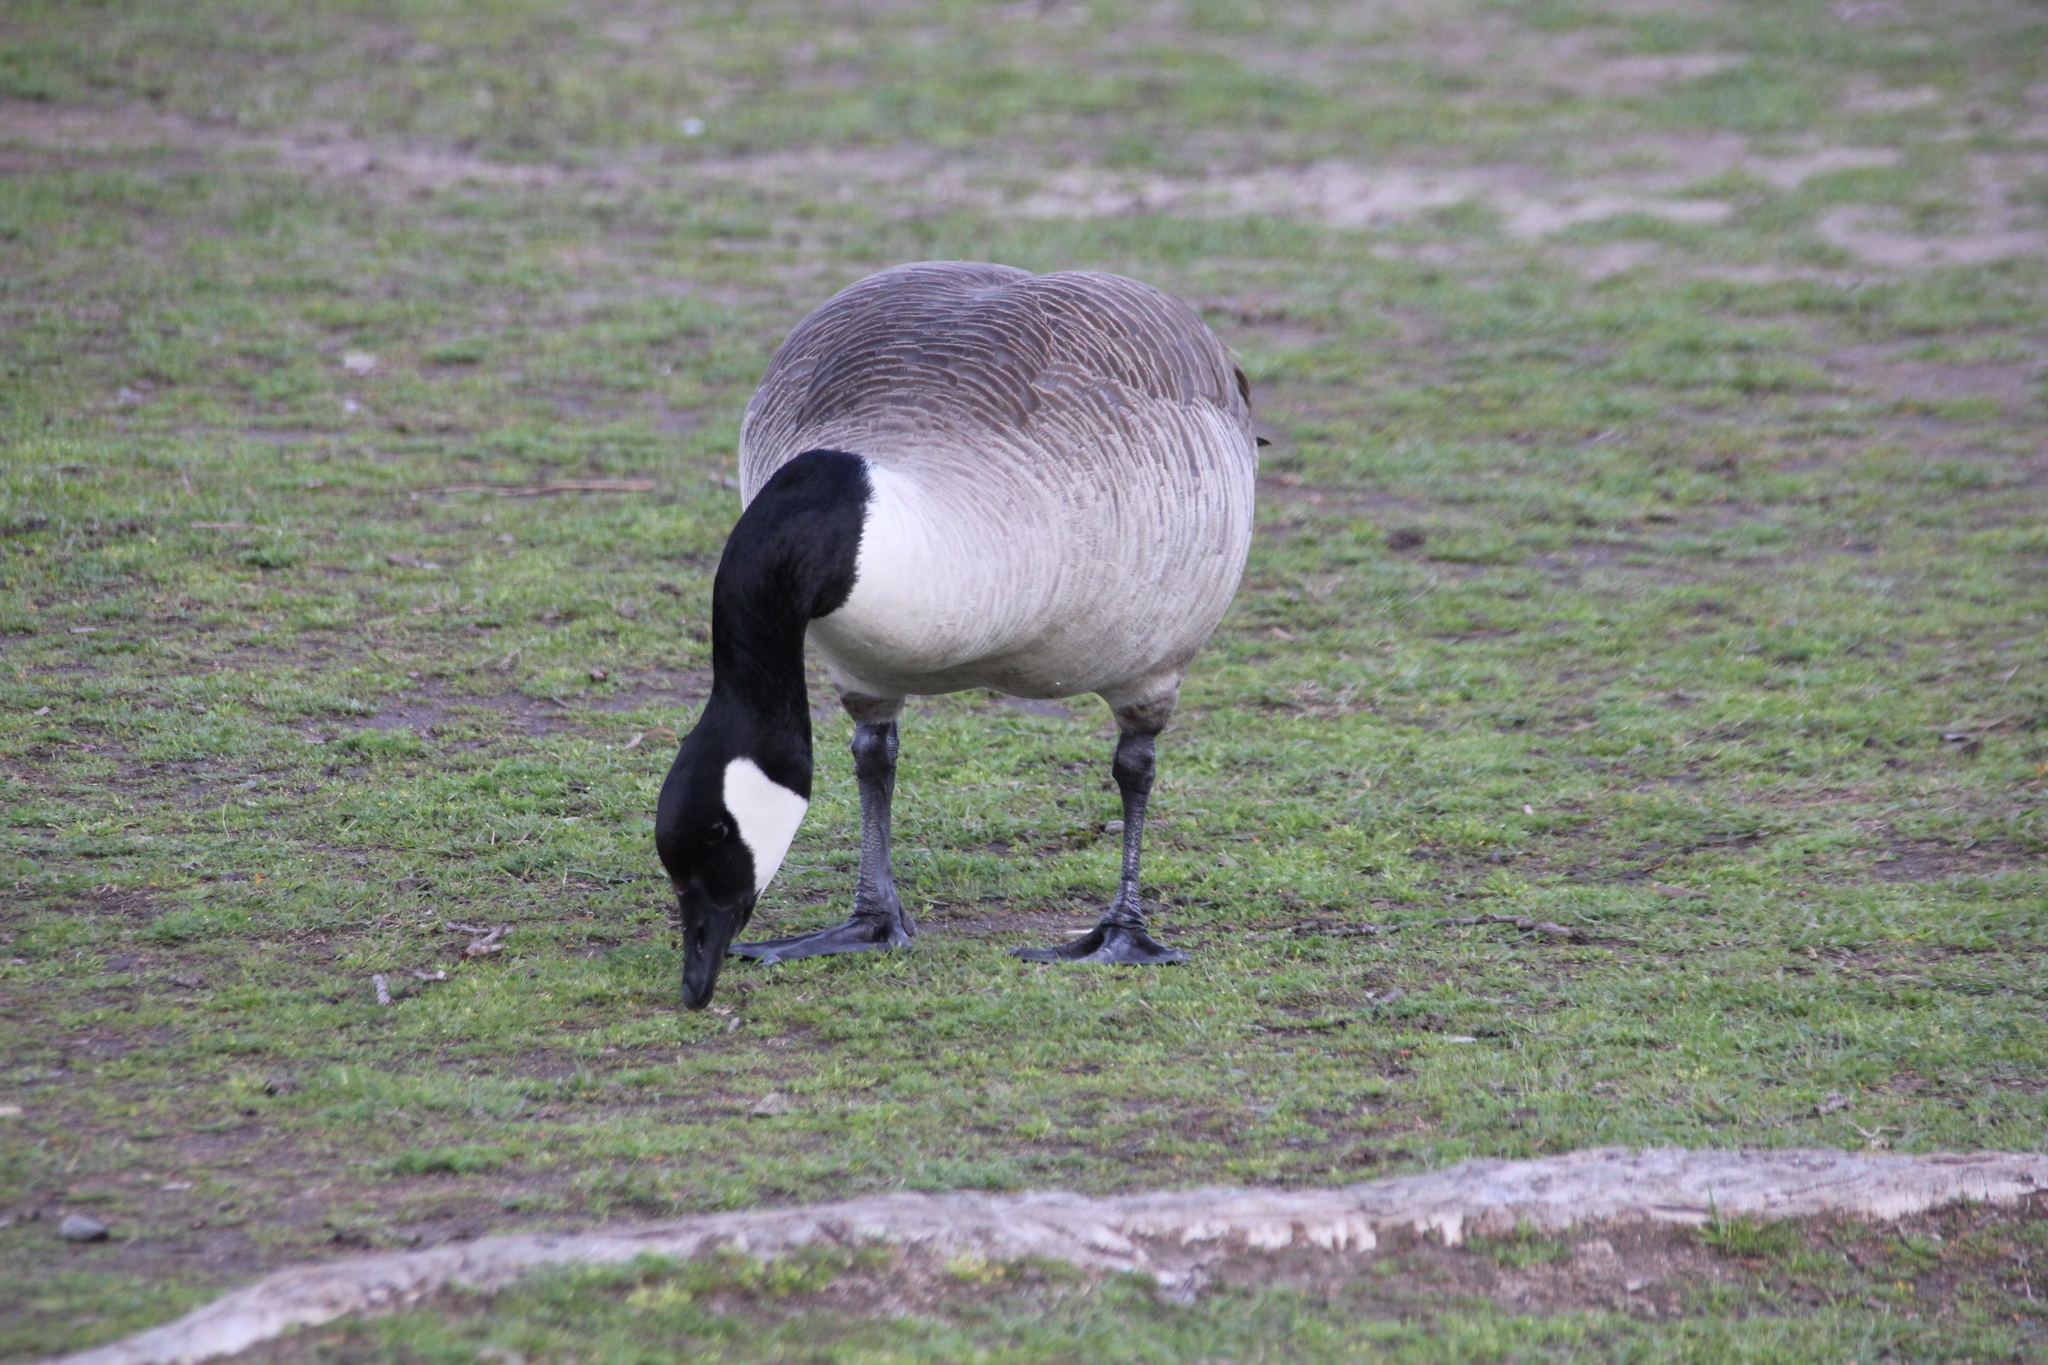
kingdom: Animalia
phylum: Chordata
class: Aves
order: Anseriformes
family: Anatidae
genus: Branta
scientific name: Branta canadensis
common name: Canada goose
